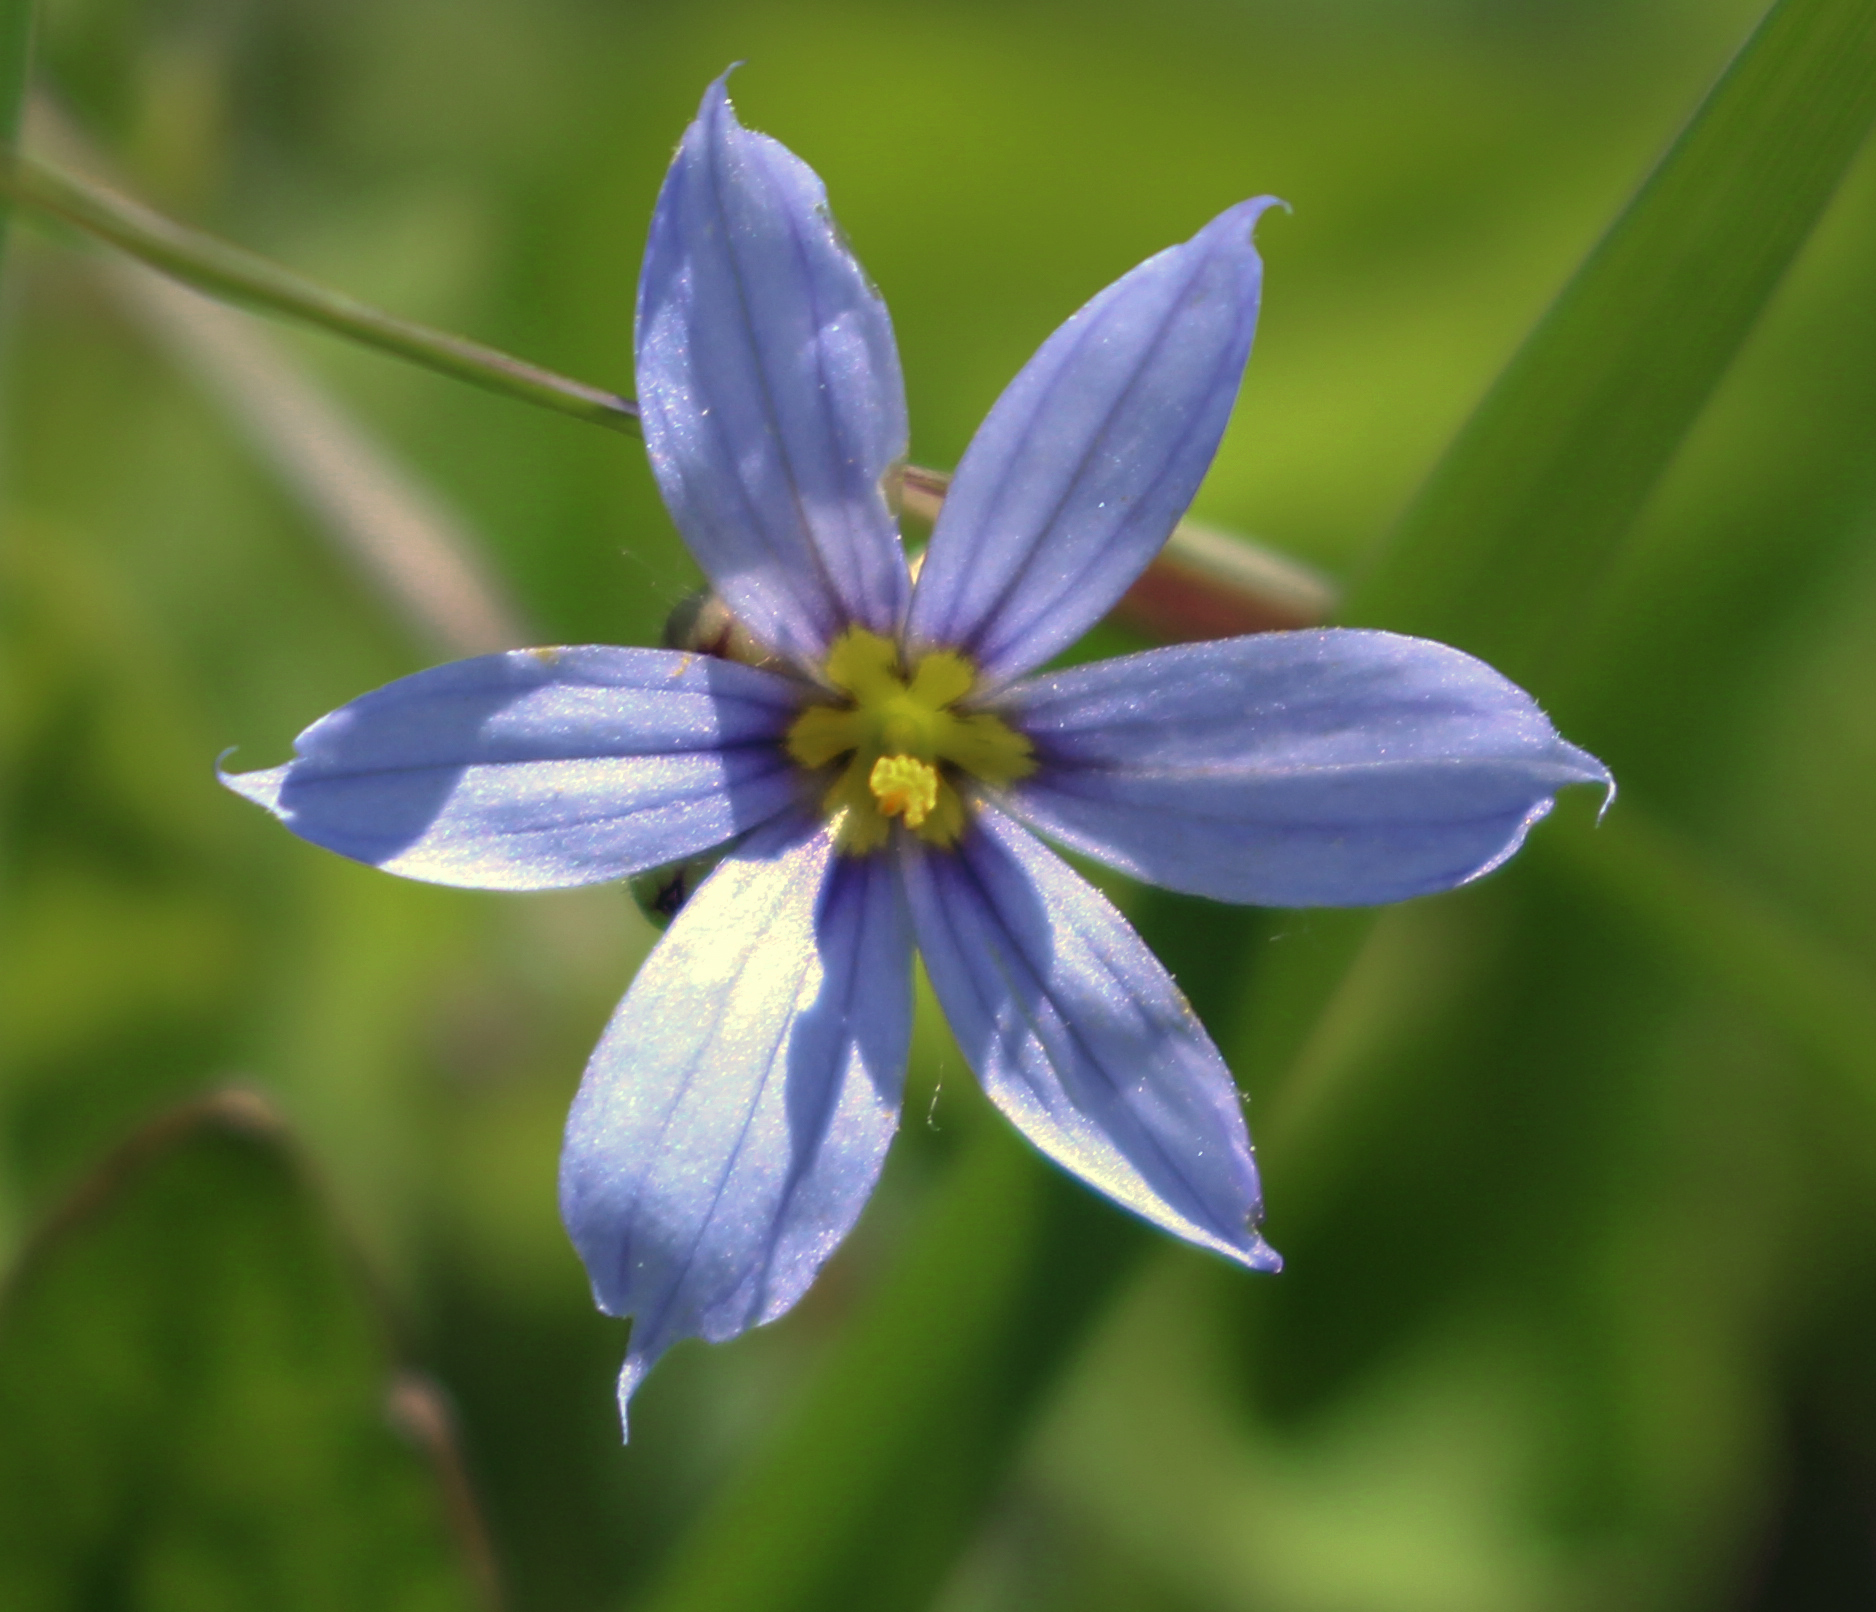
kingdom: Plantae
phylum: Tracheophyta
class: Liliopsida
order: Asparagales
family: Iridaceae
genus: Sisyrinchium
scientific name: Sisyrinchium campestre
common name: Prairie blue-eyed-grass
